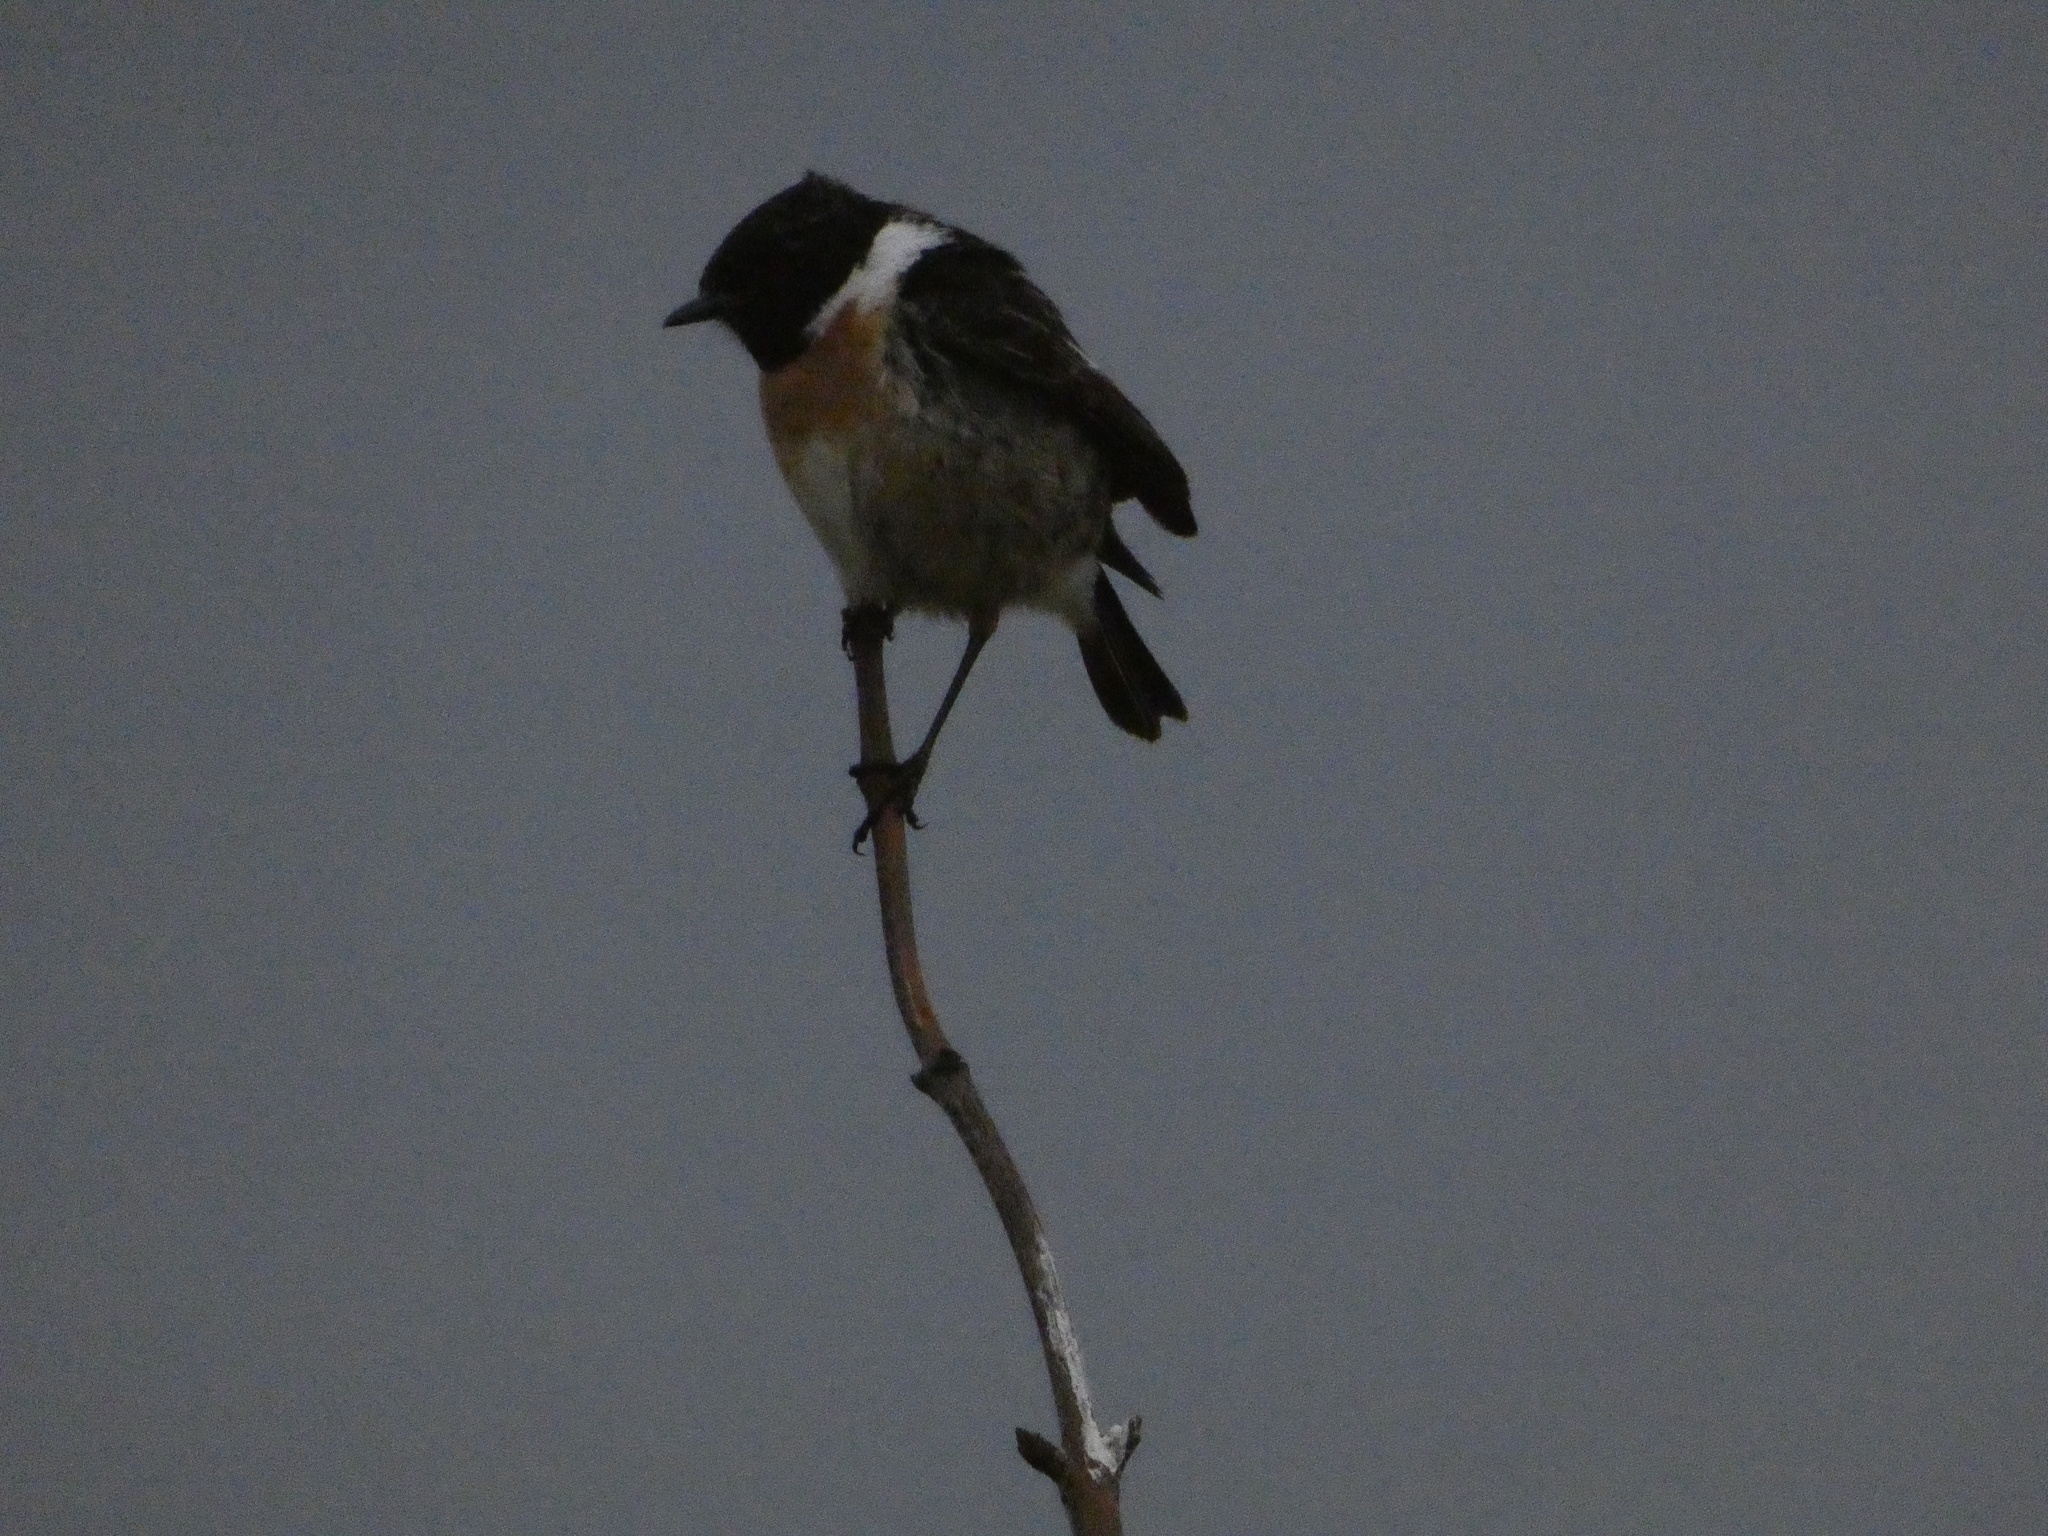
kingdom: Animalia
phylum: Chordata
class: Aves
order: Passeriformes
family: Muscicapidae
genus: Saxicola
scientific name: Saxicola rubicola
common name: European stonechat
